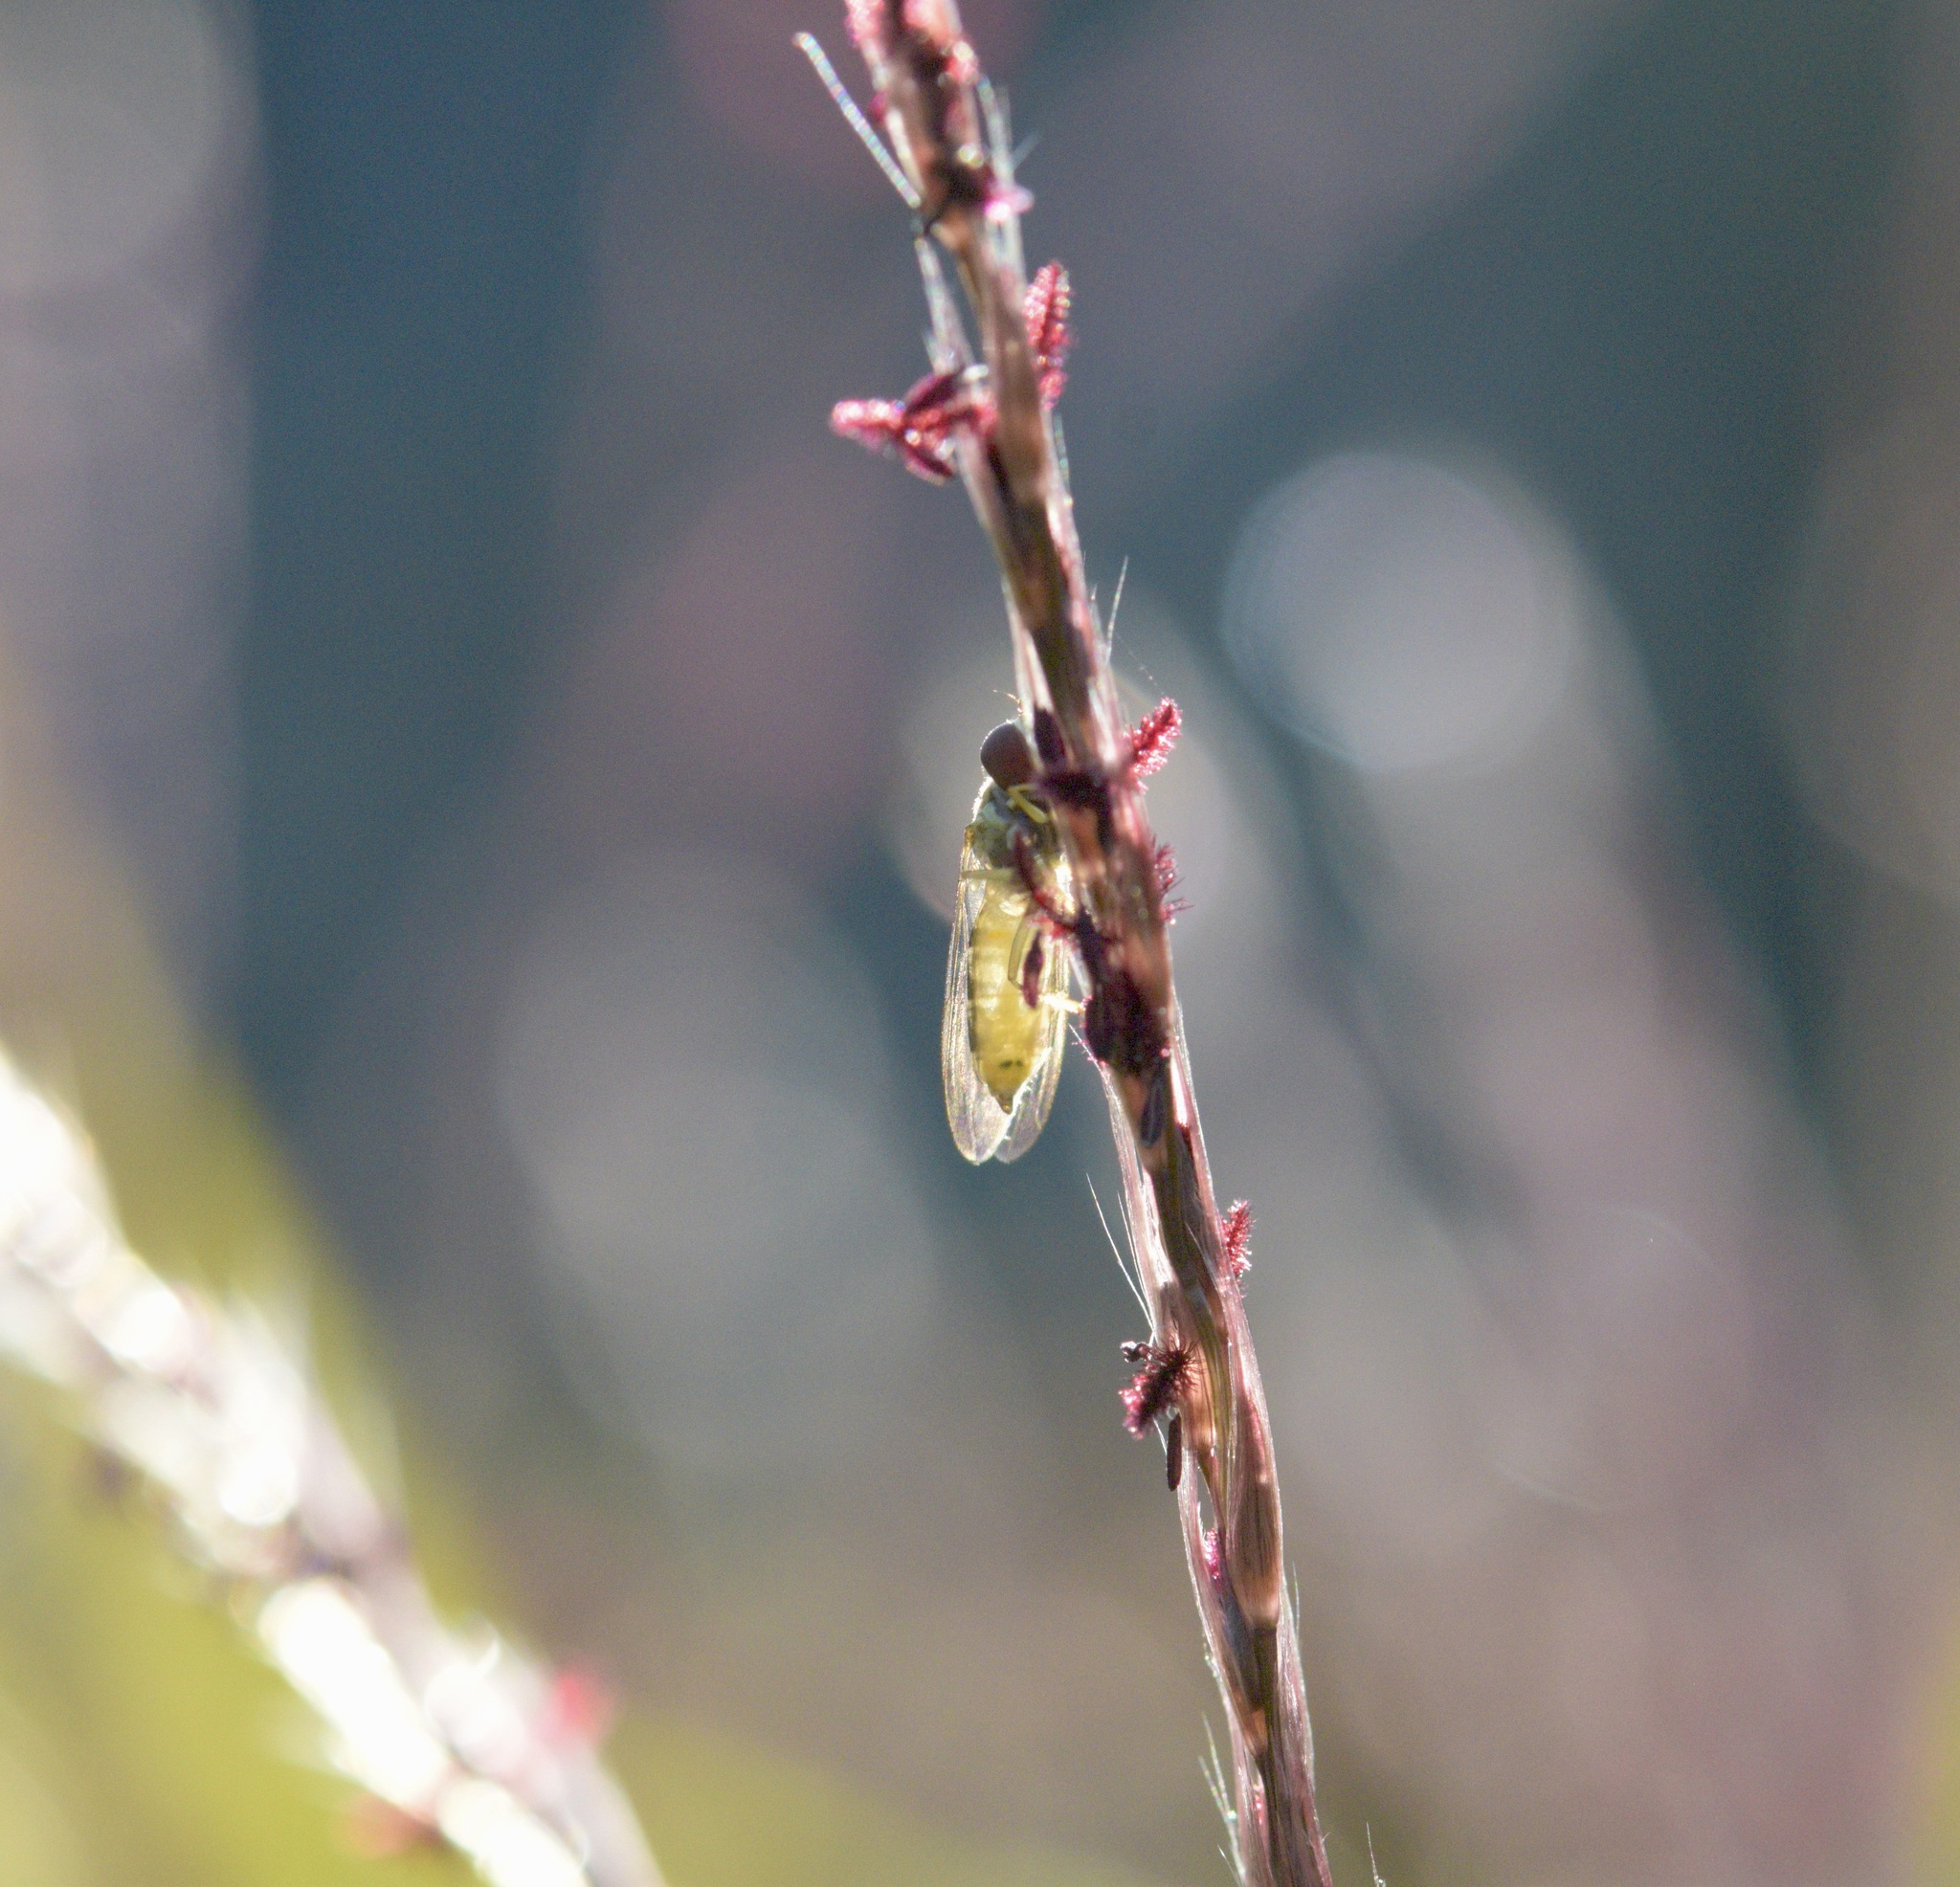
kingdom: Animalia
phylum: Arthropoda
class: Insecta
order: Diptera
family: Syrphidae
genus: Toxomerus
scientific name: Toxomerus politus
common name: Maize calligrapher
